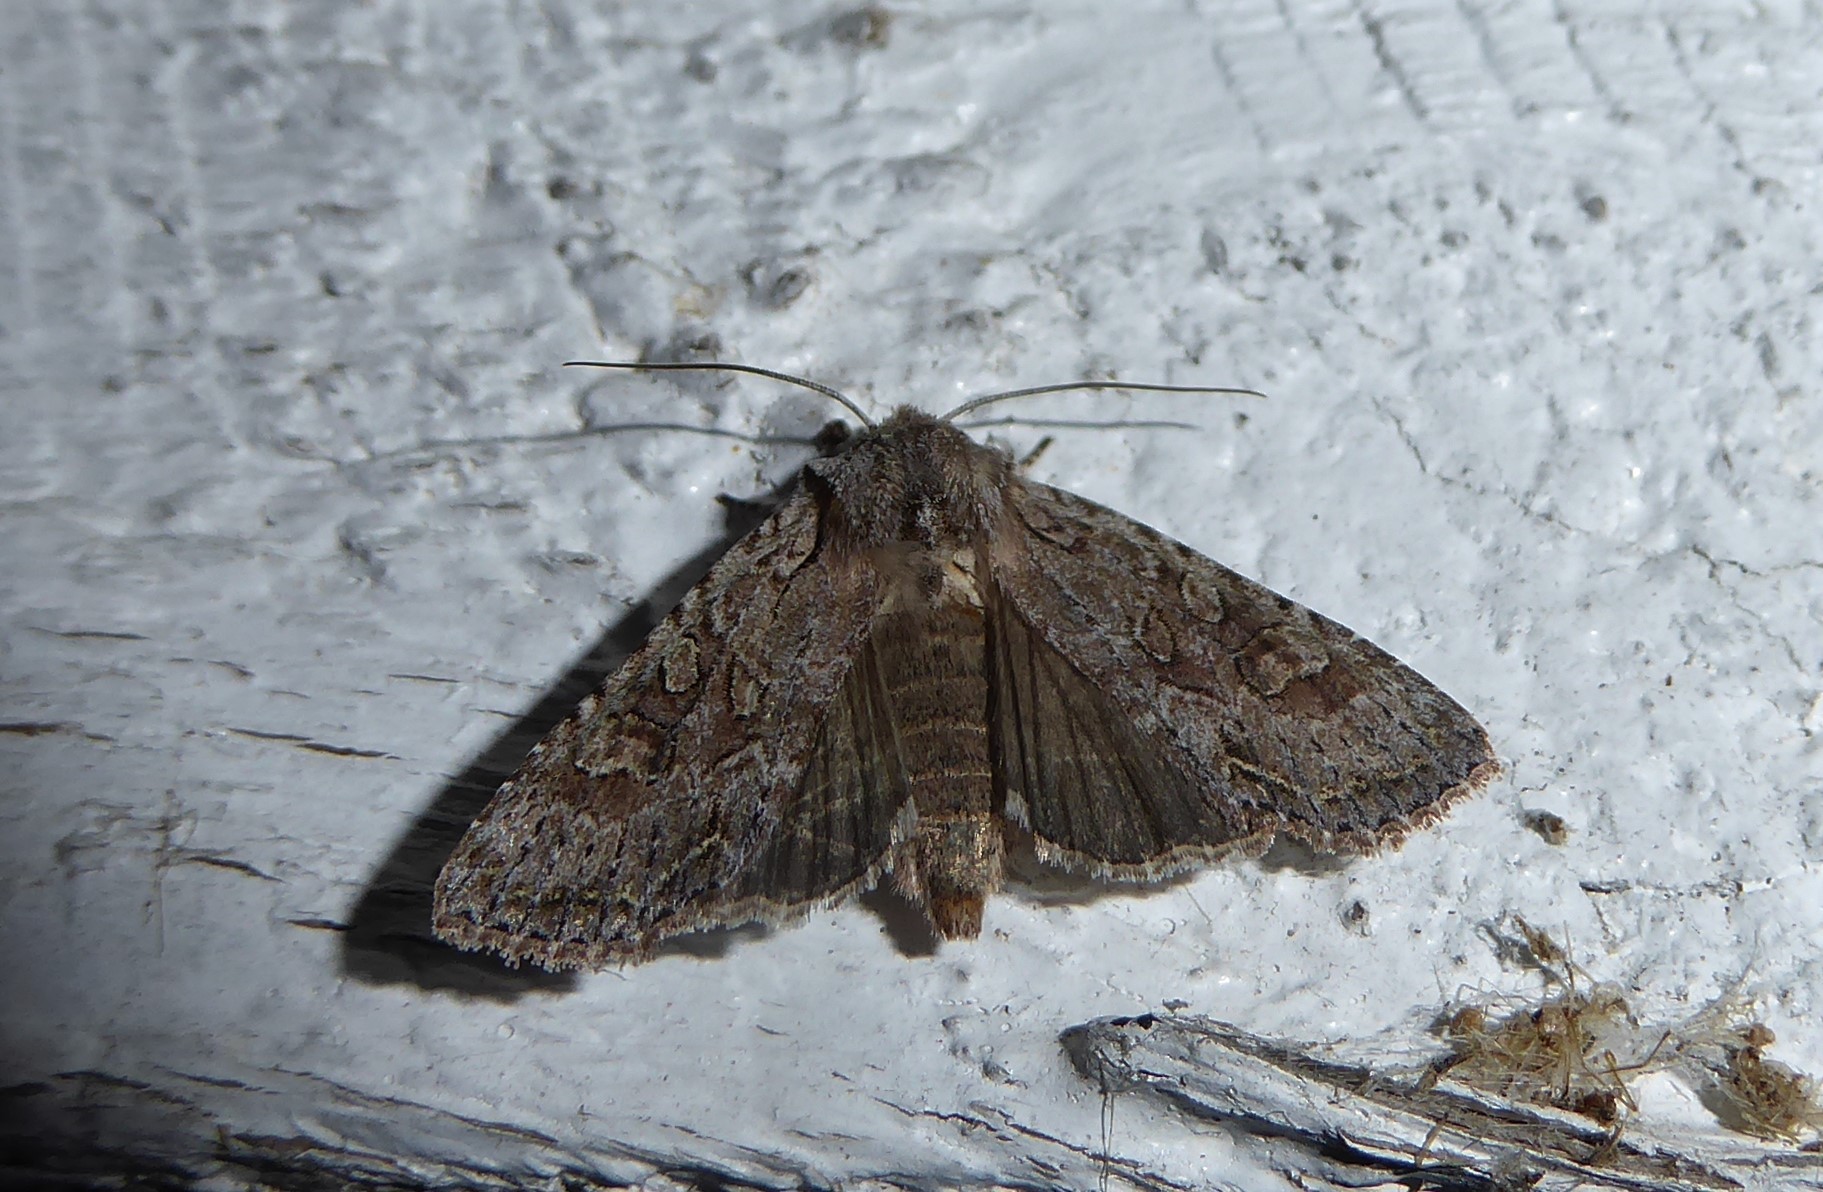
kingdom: Animalia
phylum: Arthropoda
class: Insecta
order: Lepidoptera
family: Noctuidae
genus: Ichneutica
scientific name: Ichneutica mutans
